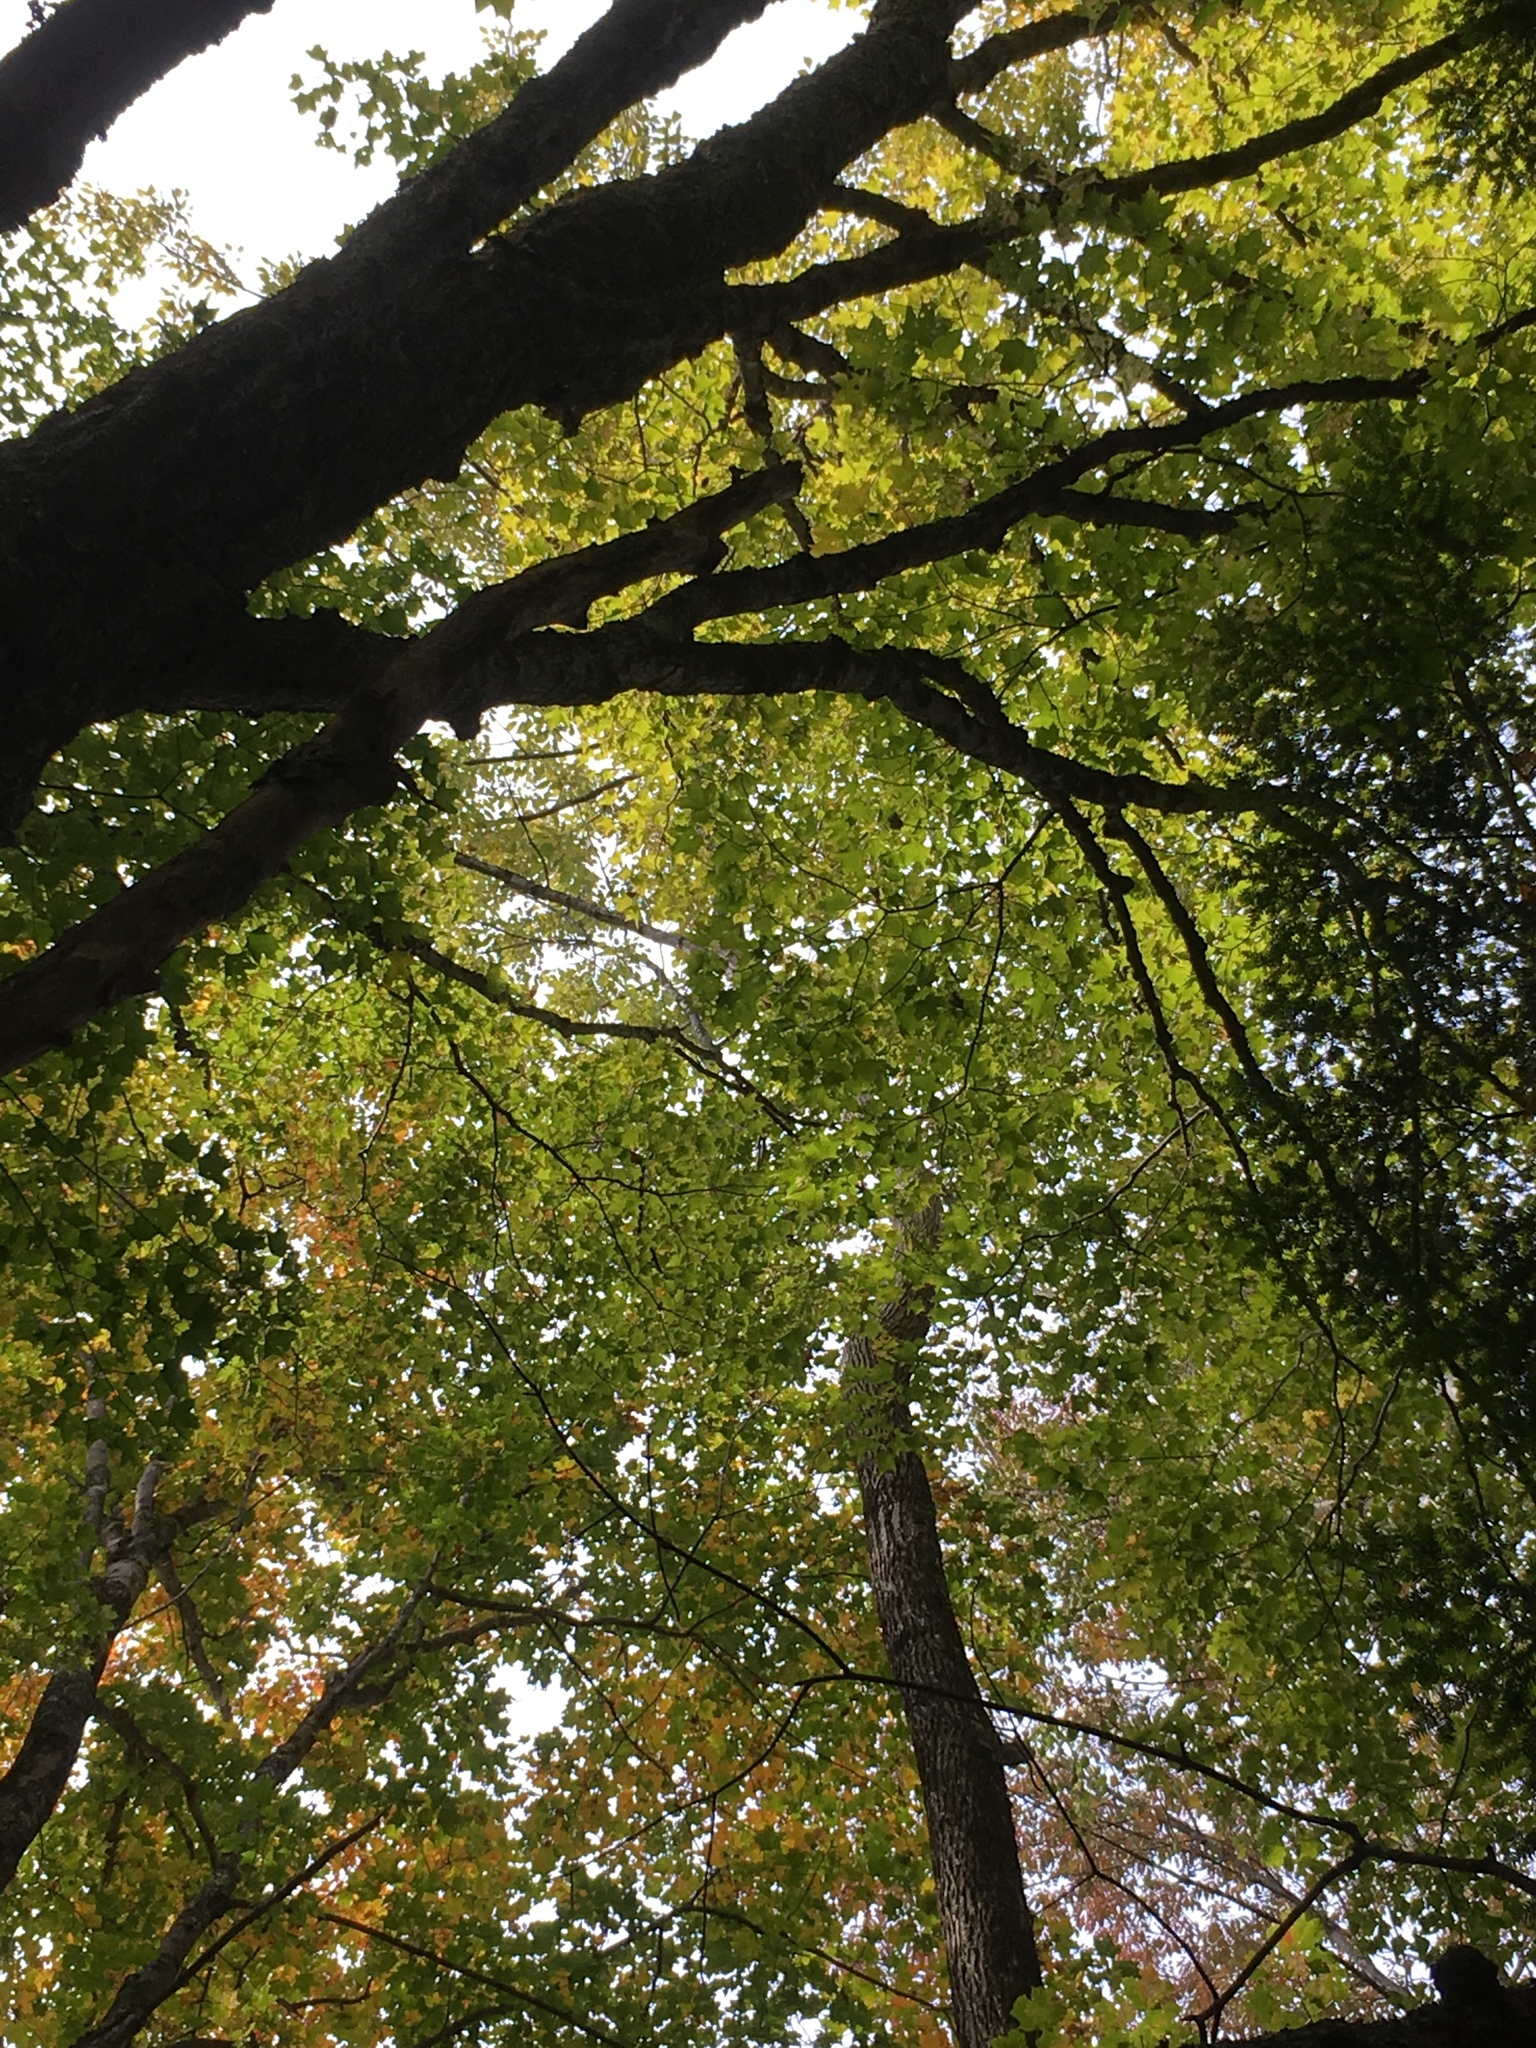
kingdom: Plantae
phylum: Tracheophyta
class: Magnoliopsida
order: Sapindales
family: Sapindaceae
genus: Acer
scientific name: Acer saccharum
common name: Sugar maple
